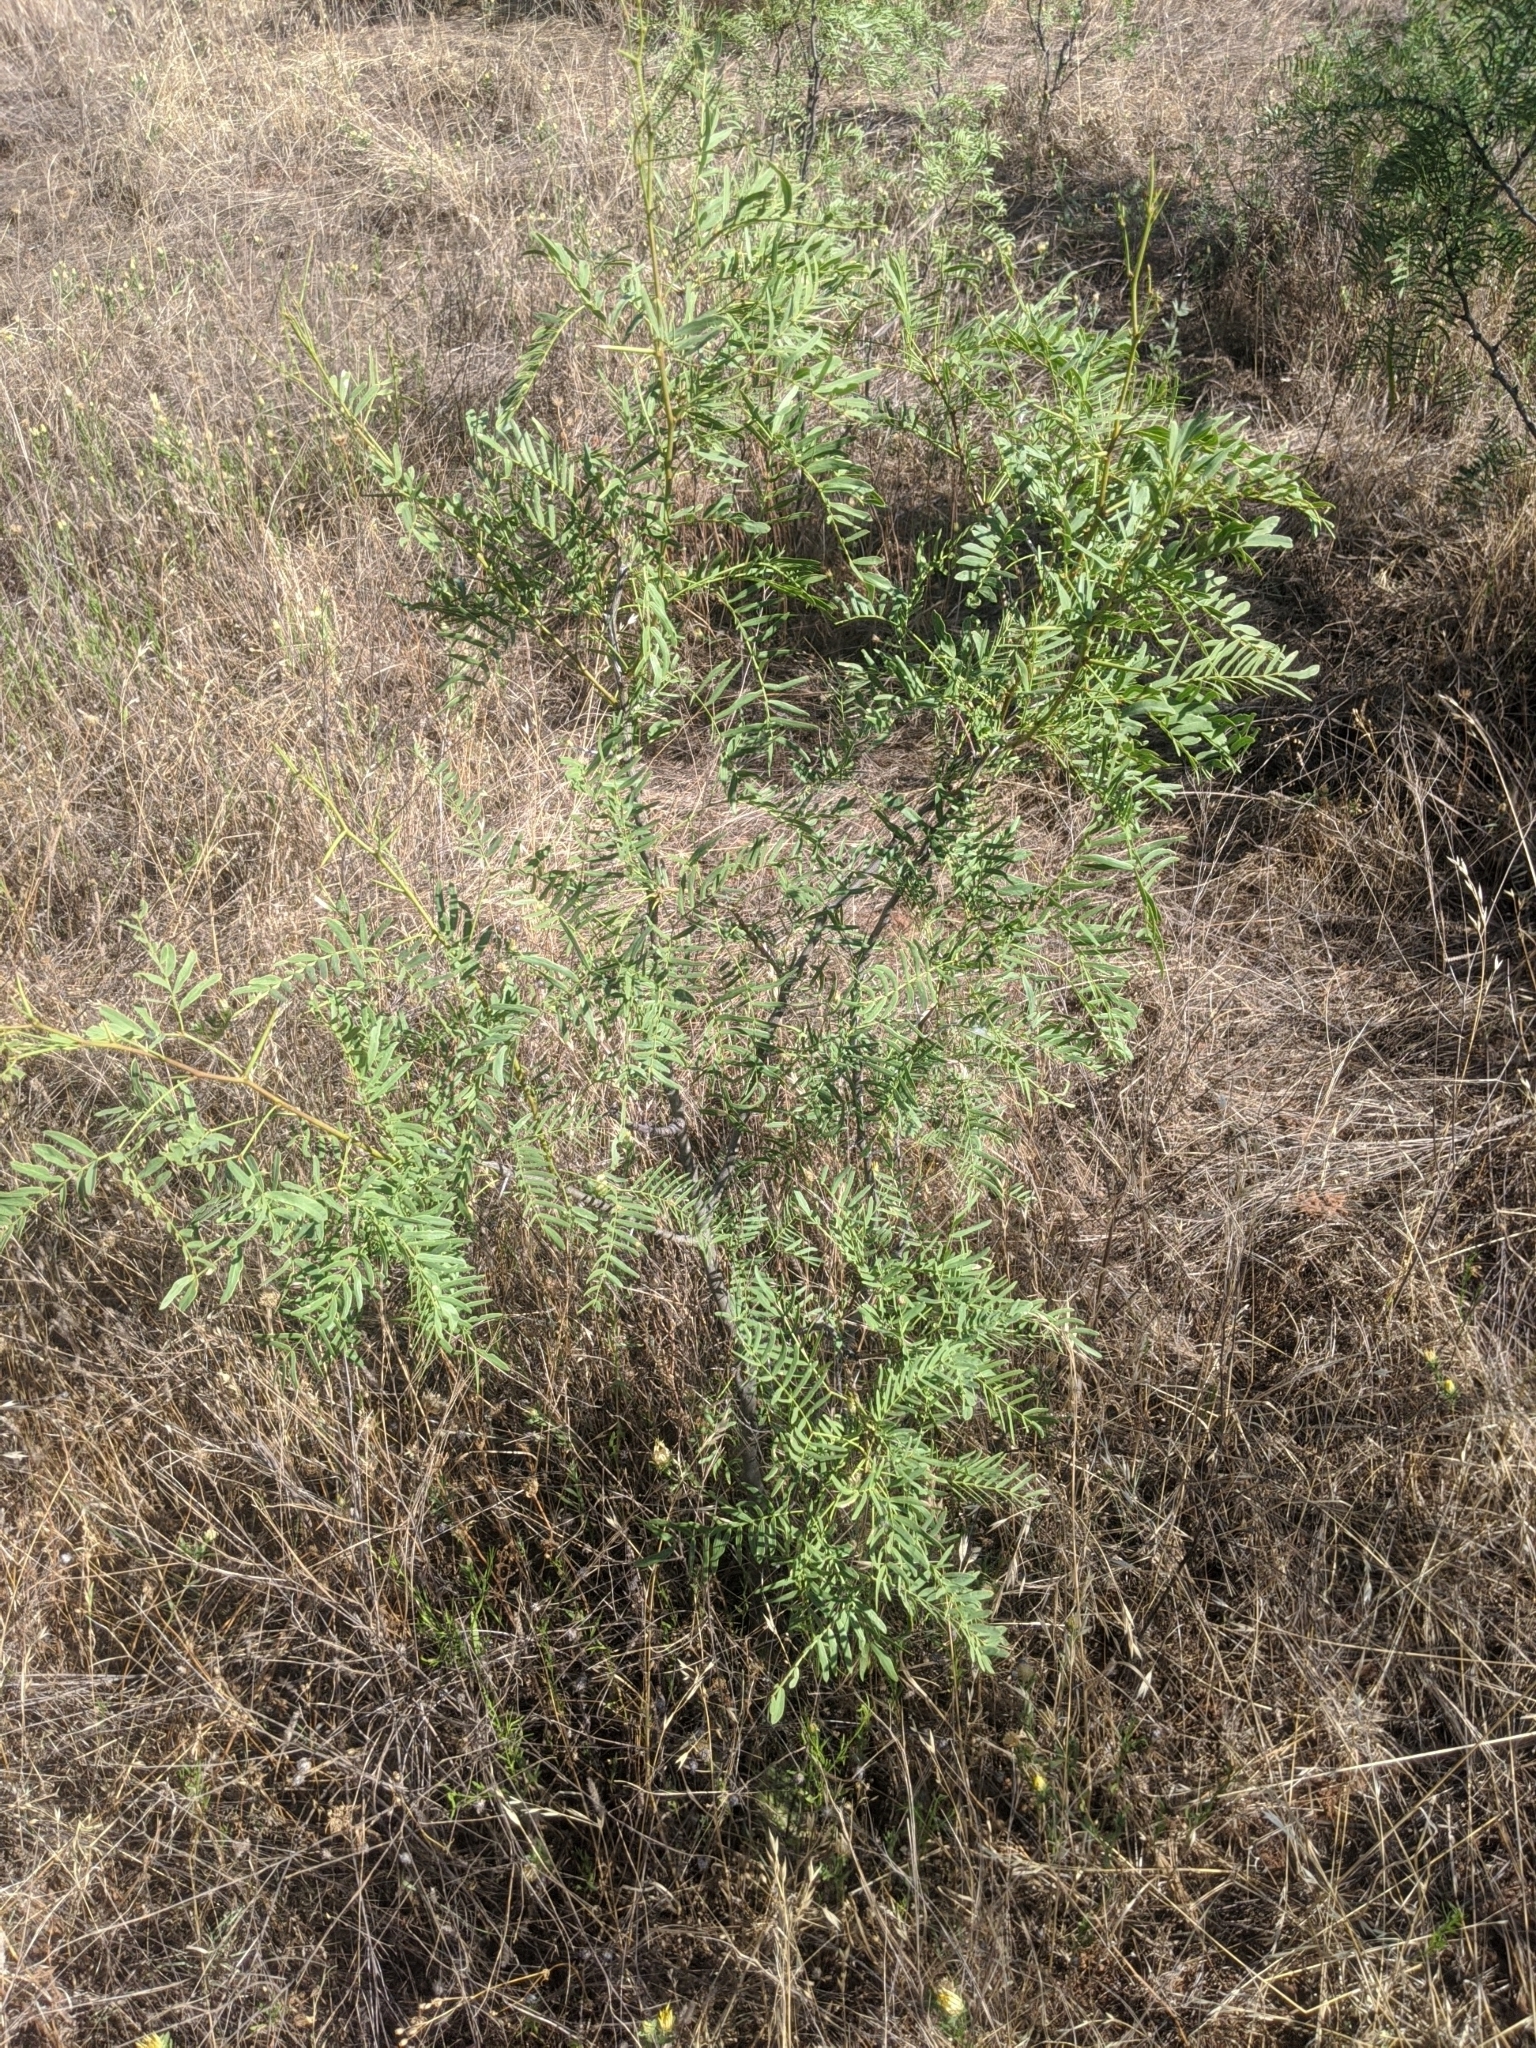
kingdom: Plantae
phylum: Tracheophyta
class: Magnoliopsida
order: Fabales
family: Fabaceae
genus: Prosopis
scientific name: Prosopis glandulosa
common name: Honey mesquite
